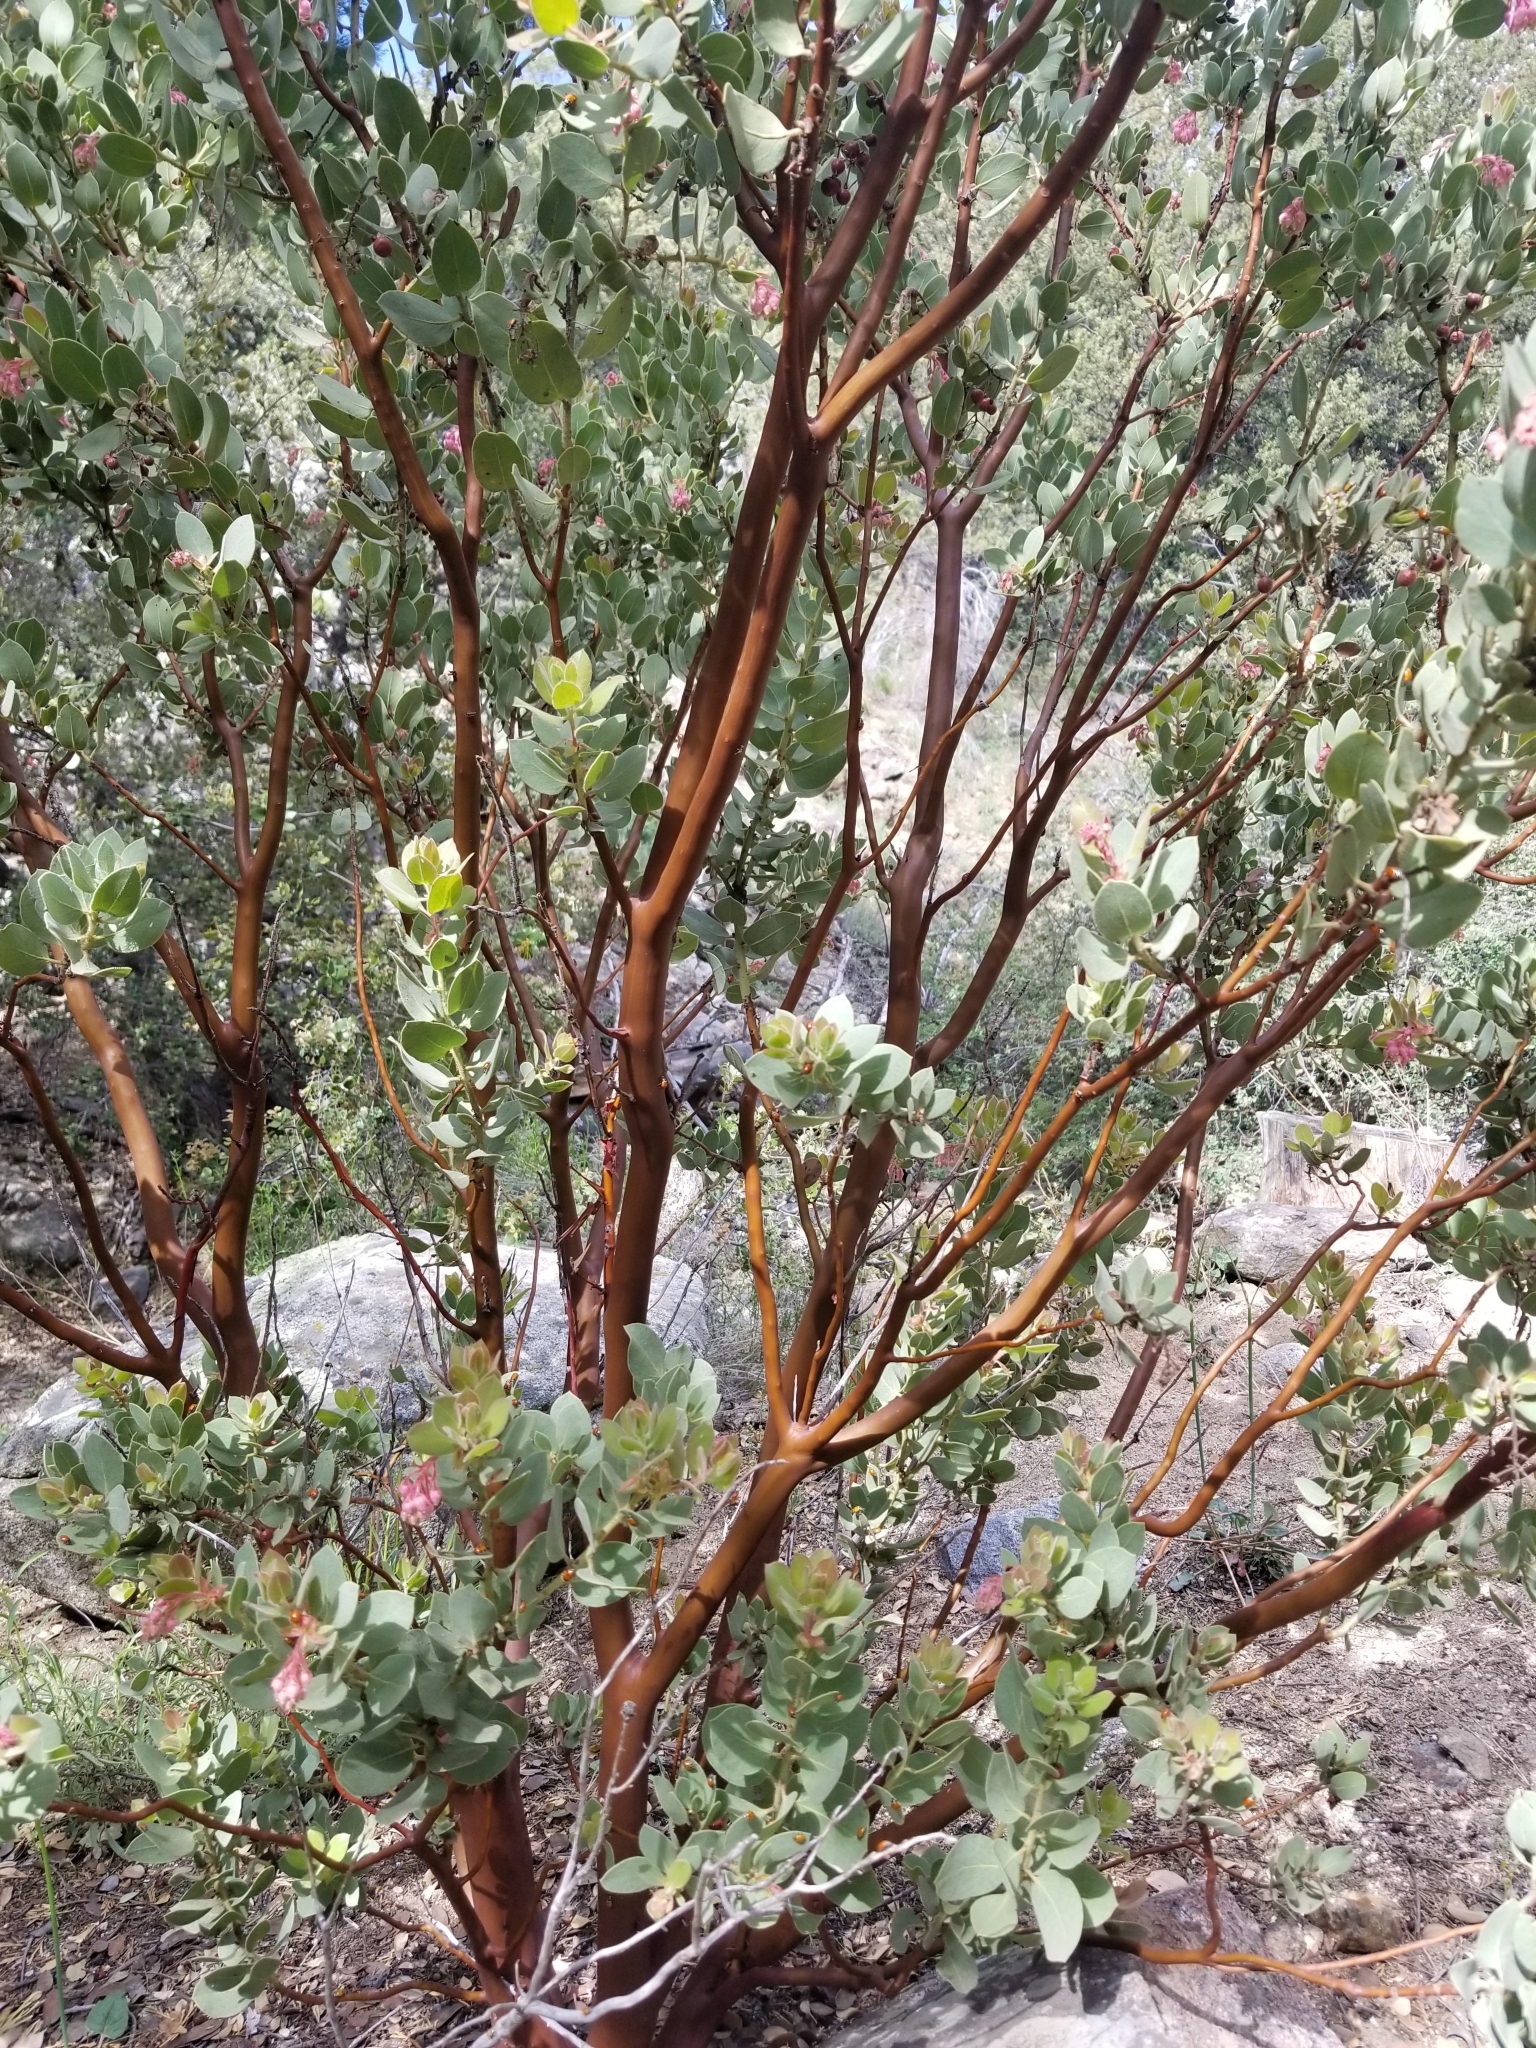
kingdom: Plantae
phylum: Tracheophyta
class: Magnoliopsida
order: Ericales
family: Ericaceae
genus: Arctostaphylos
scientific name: Arctostaphylos pringlei
